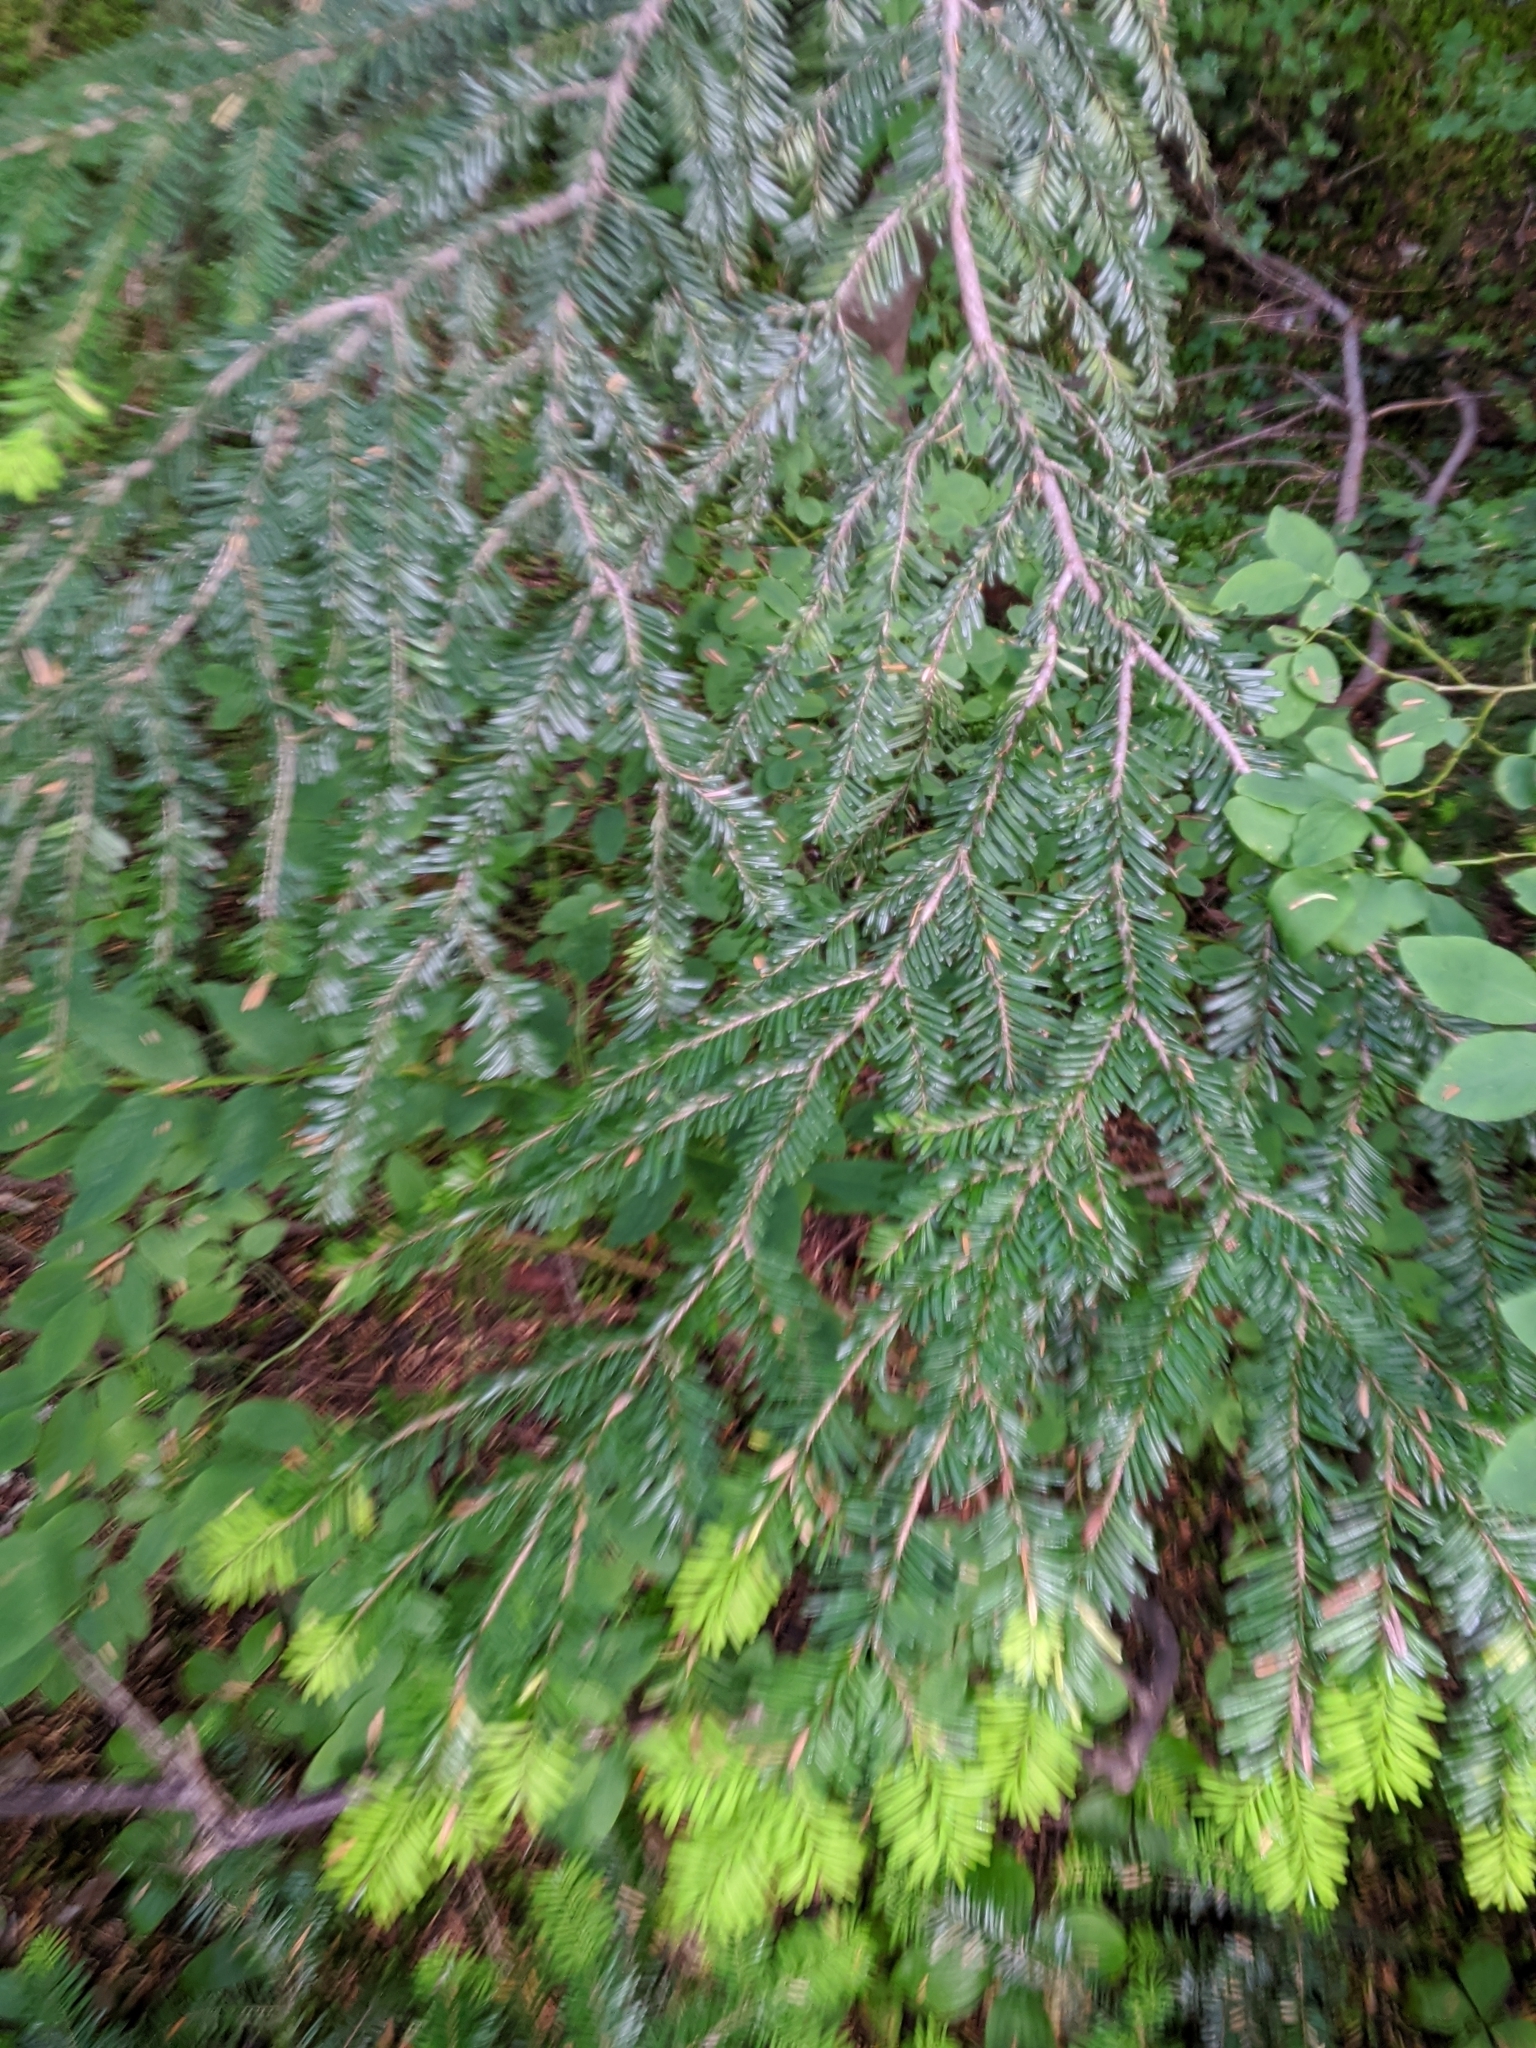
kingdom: Plantae
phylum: Tracheophyta
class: Pinopsida
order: Pinales
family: Pinaceae
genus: Abies
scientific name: Abies amabilis
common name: Pacific silver fir
